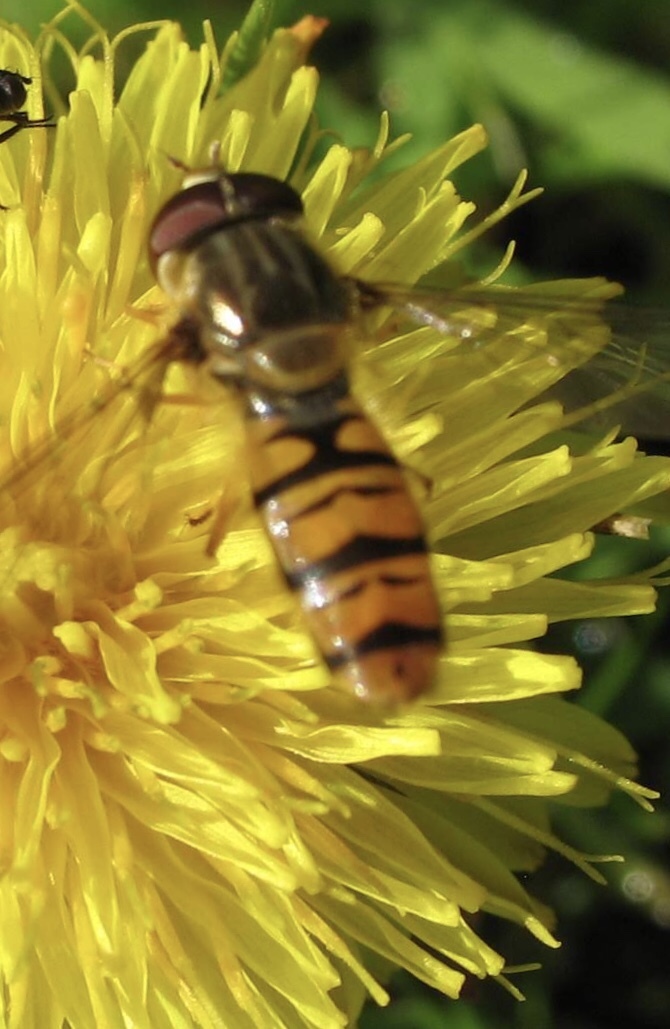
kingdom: Animalia
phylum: Arthropoda
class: Insecta
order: Diptera
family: Syrphidae
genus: Episyrphus
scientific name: Episyrphus balteatus
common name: Marmalade hoverfly
